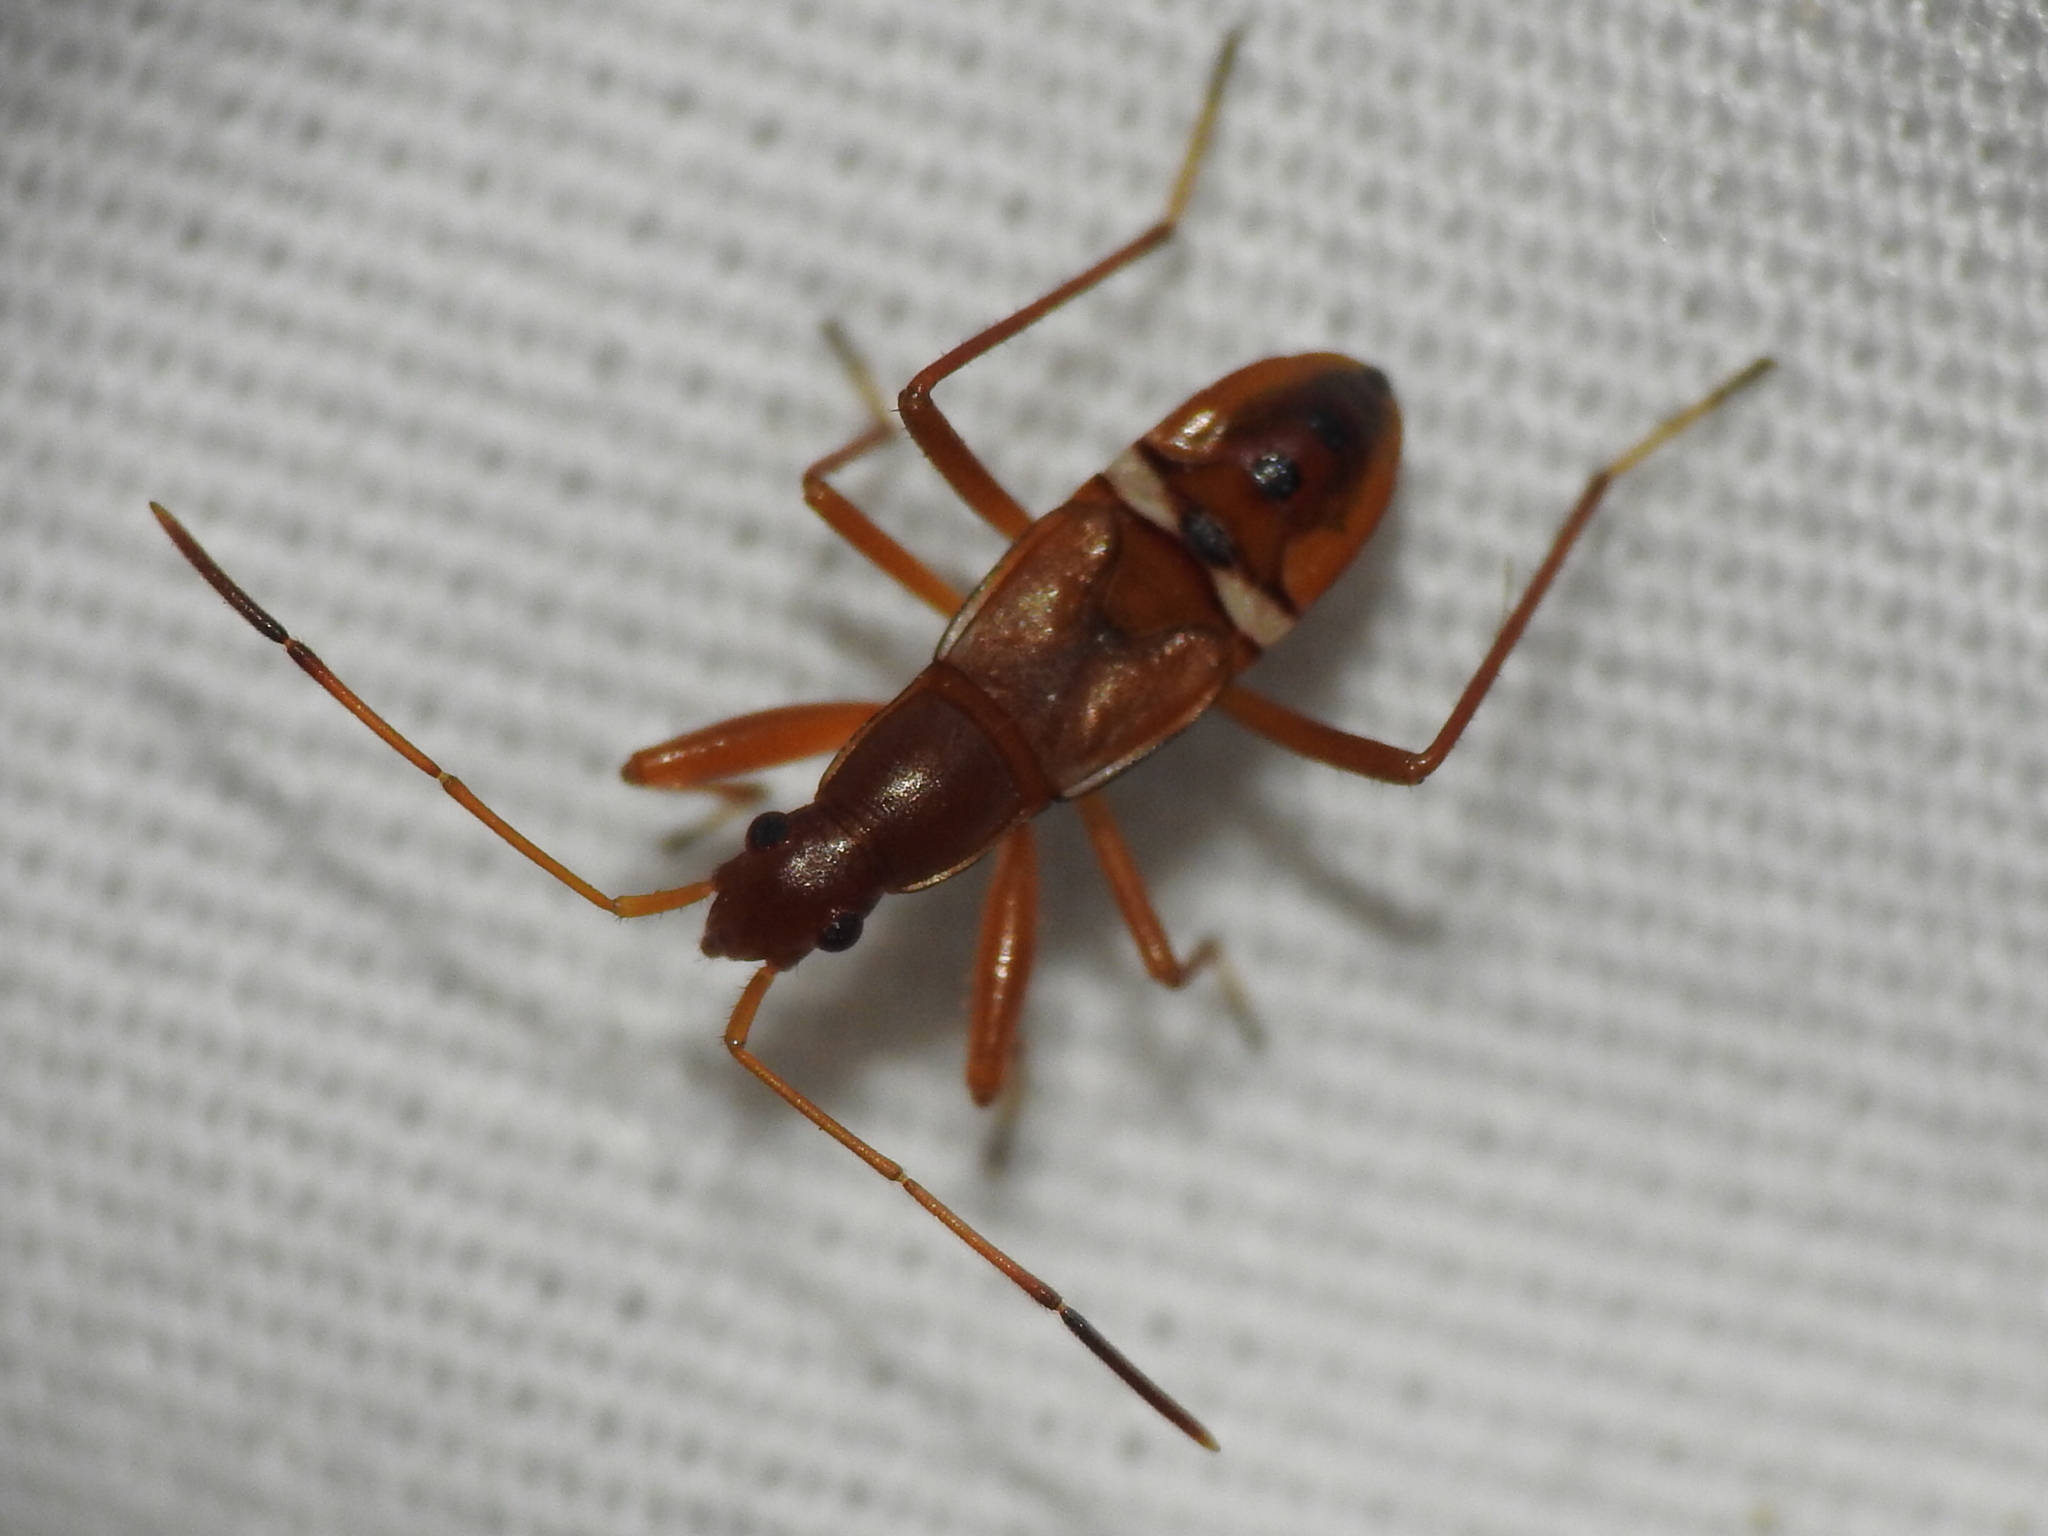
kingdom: Animalia
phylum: Arthropoda
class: Insecta
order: Hemiptera
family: Rhyparochromidae
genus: Cnemodus
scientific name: Cnemodus mavortius
